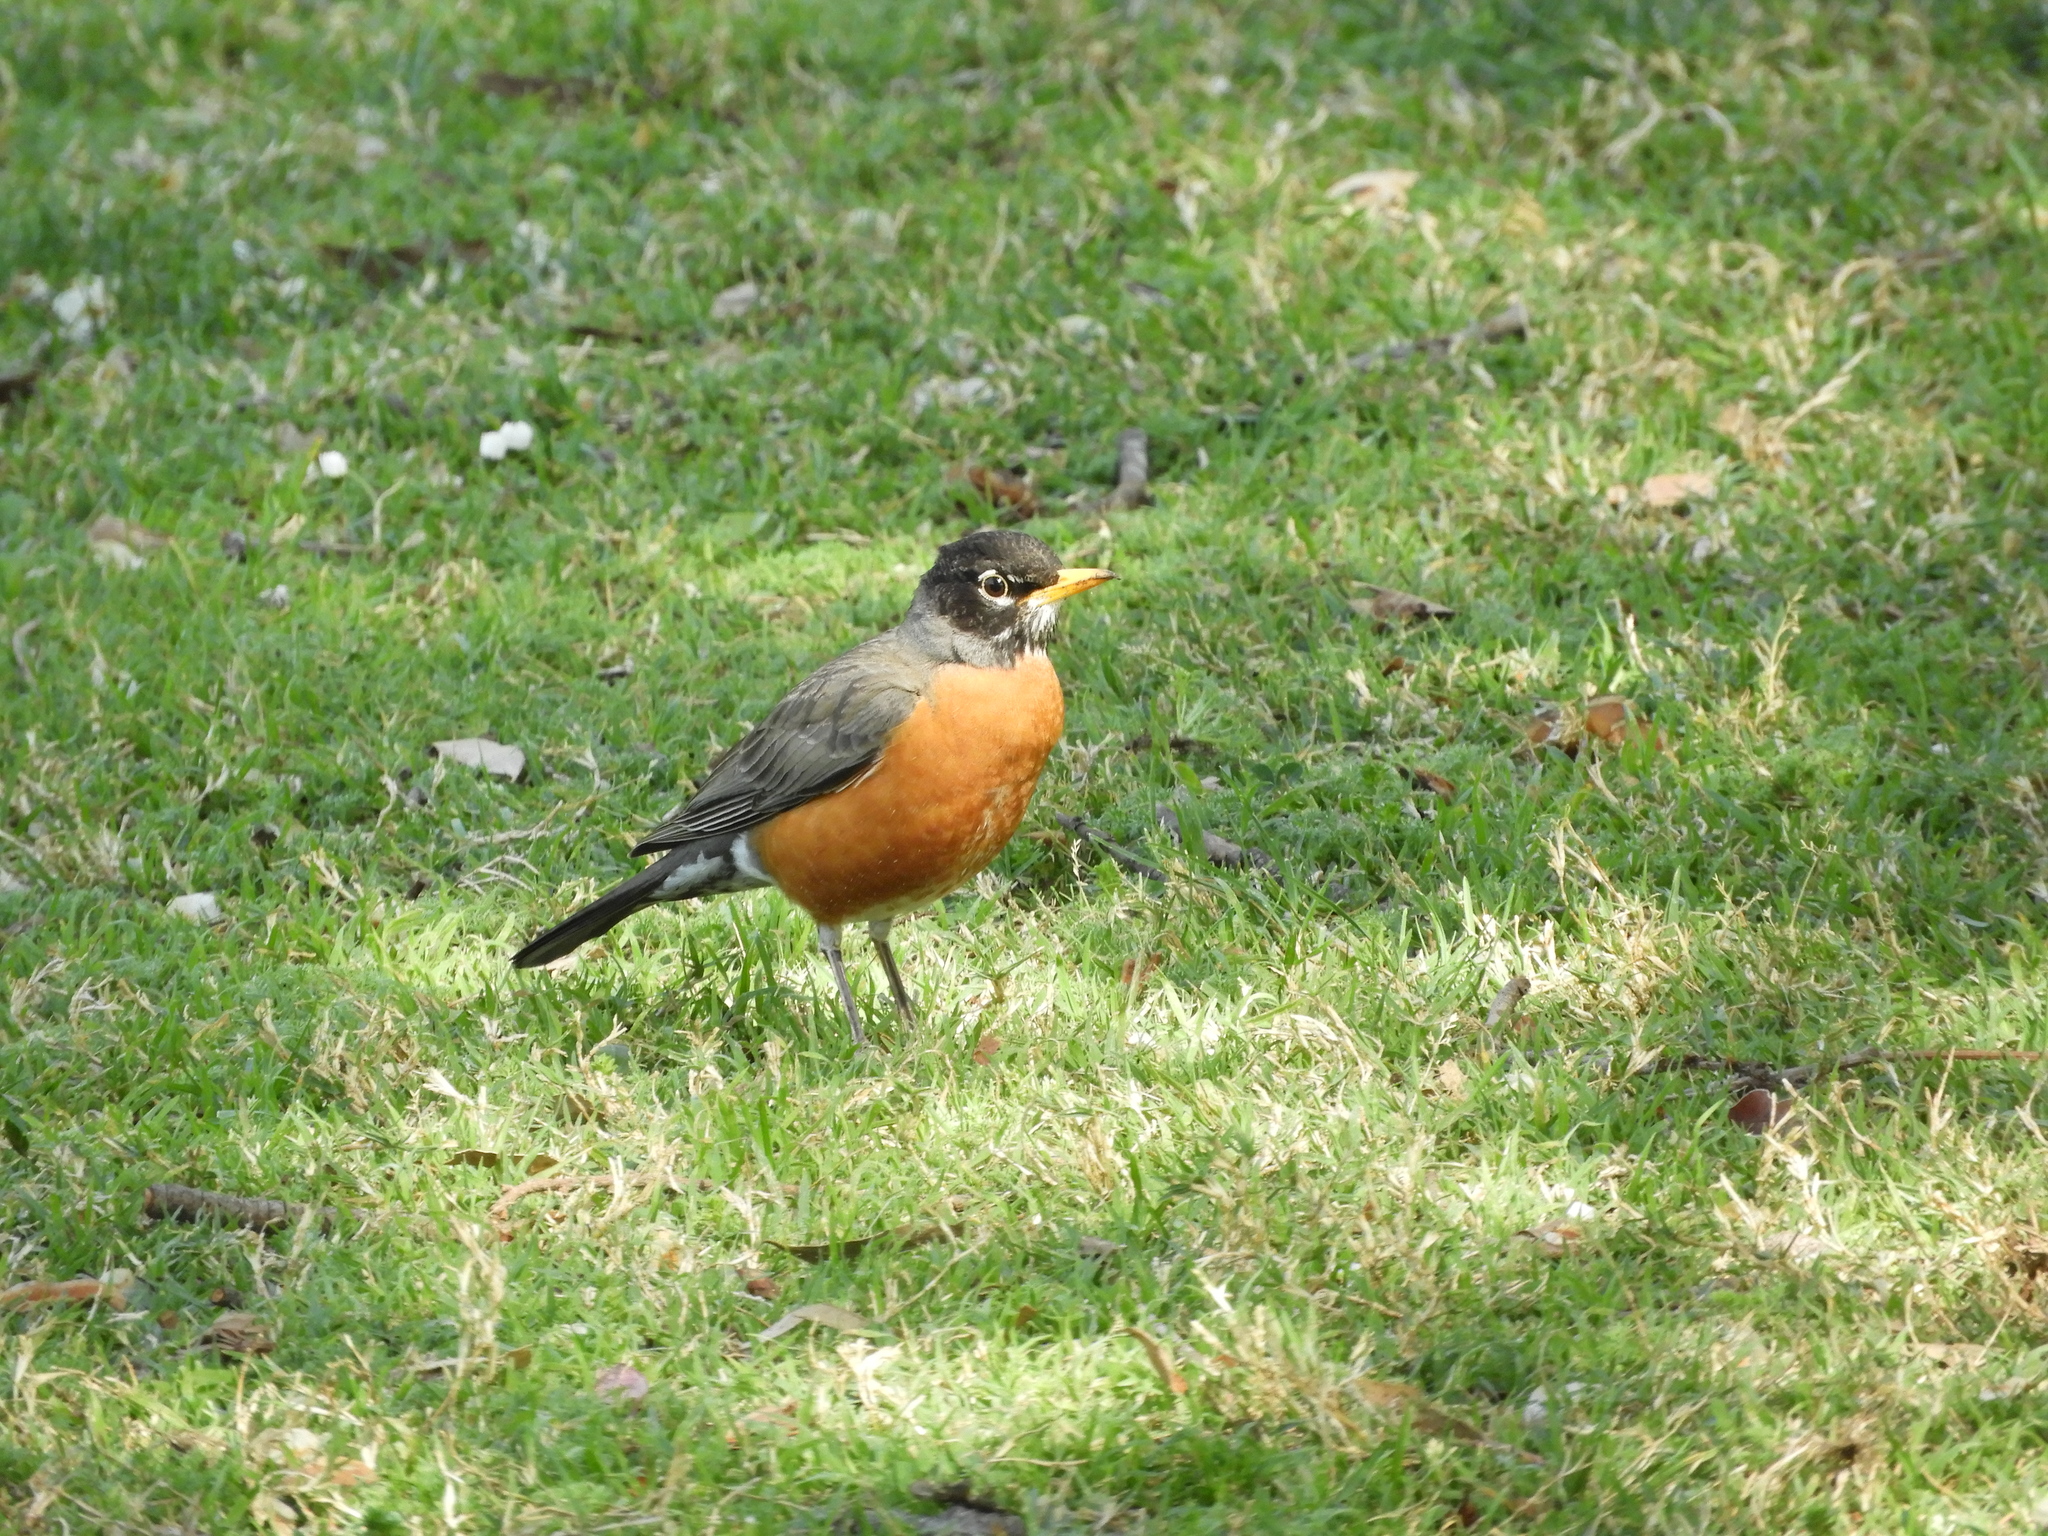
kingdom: Animalia
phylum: Chordata
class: Aves
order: Passeriformes
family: Turdidae
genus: Turdus
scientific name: Turdus migratorius
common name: American robin
